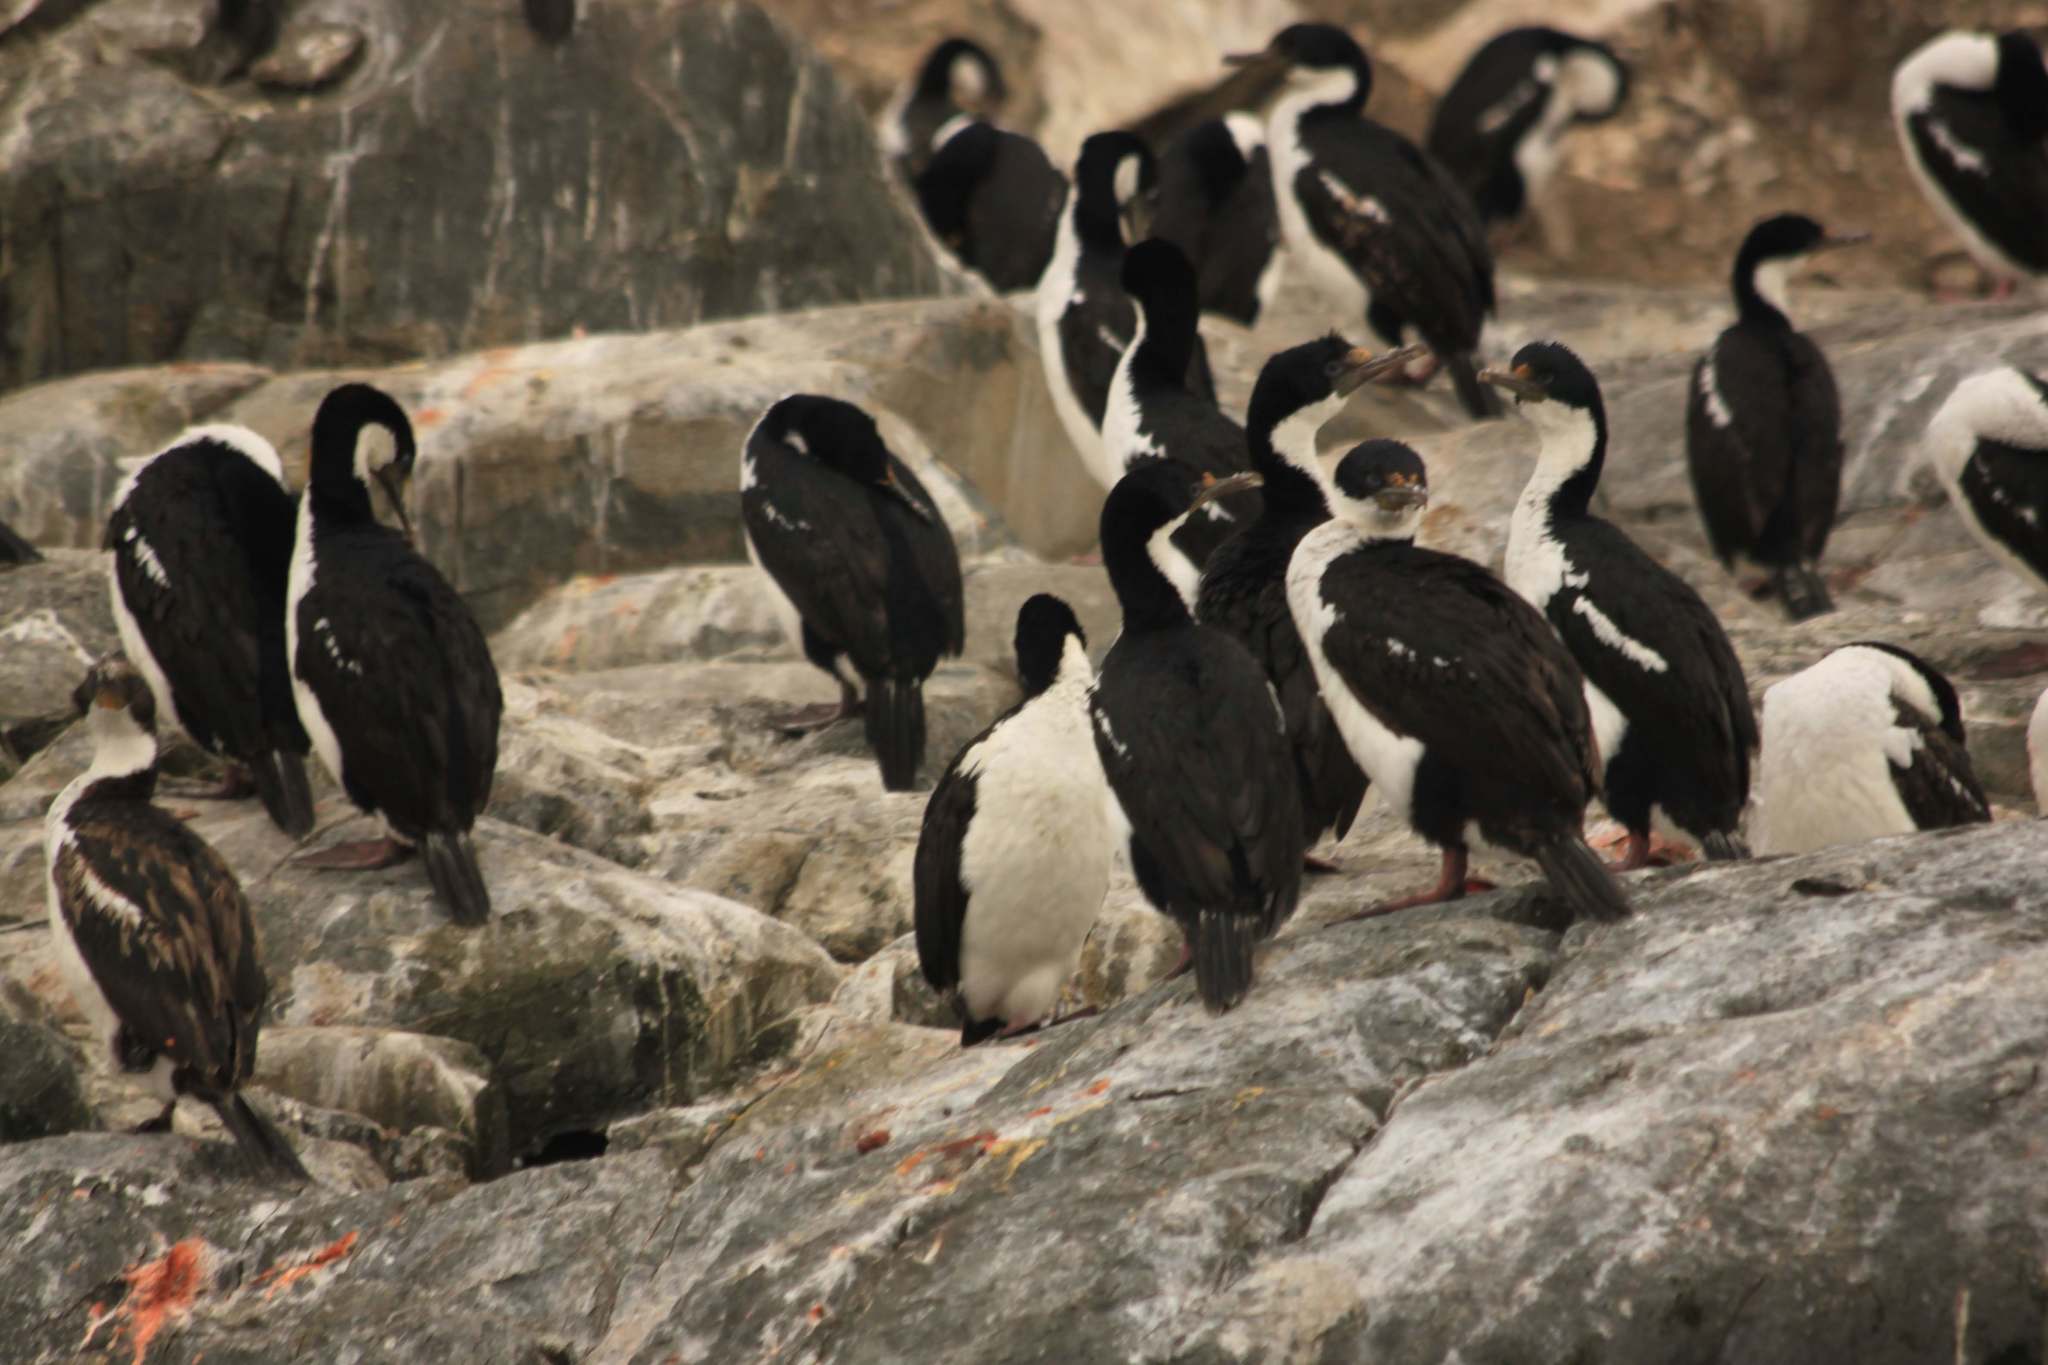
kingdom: Animalia
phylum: Chordata
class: Aves
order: Suliformes
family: Phalacrocoracidae
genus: Leucocarbo
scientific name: Leucocarbo atriceps
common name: Imperial shag
